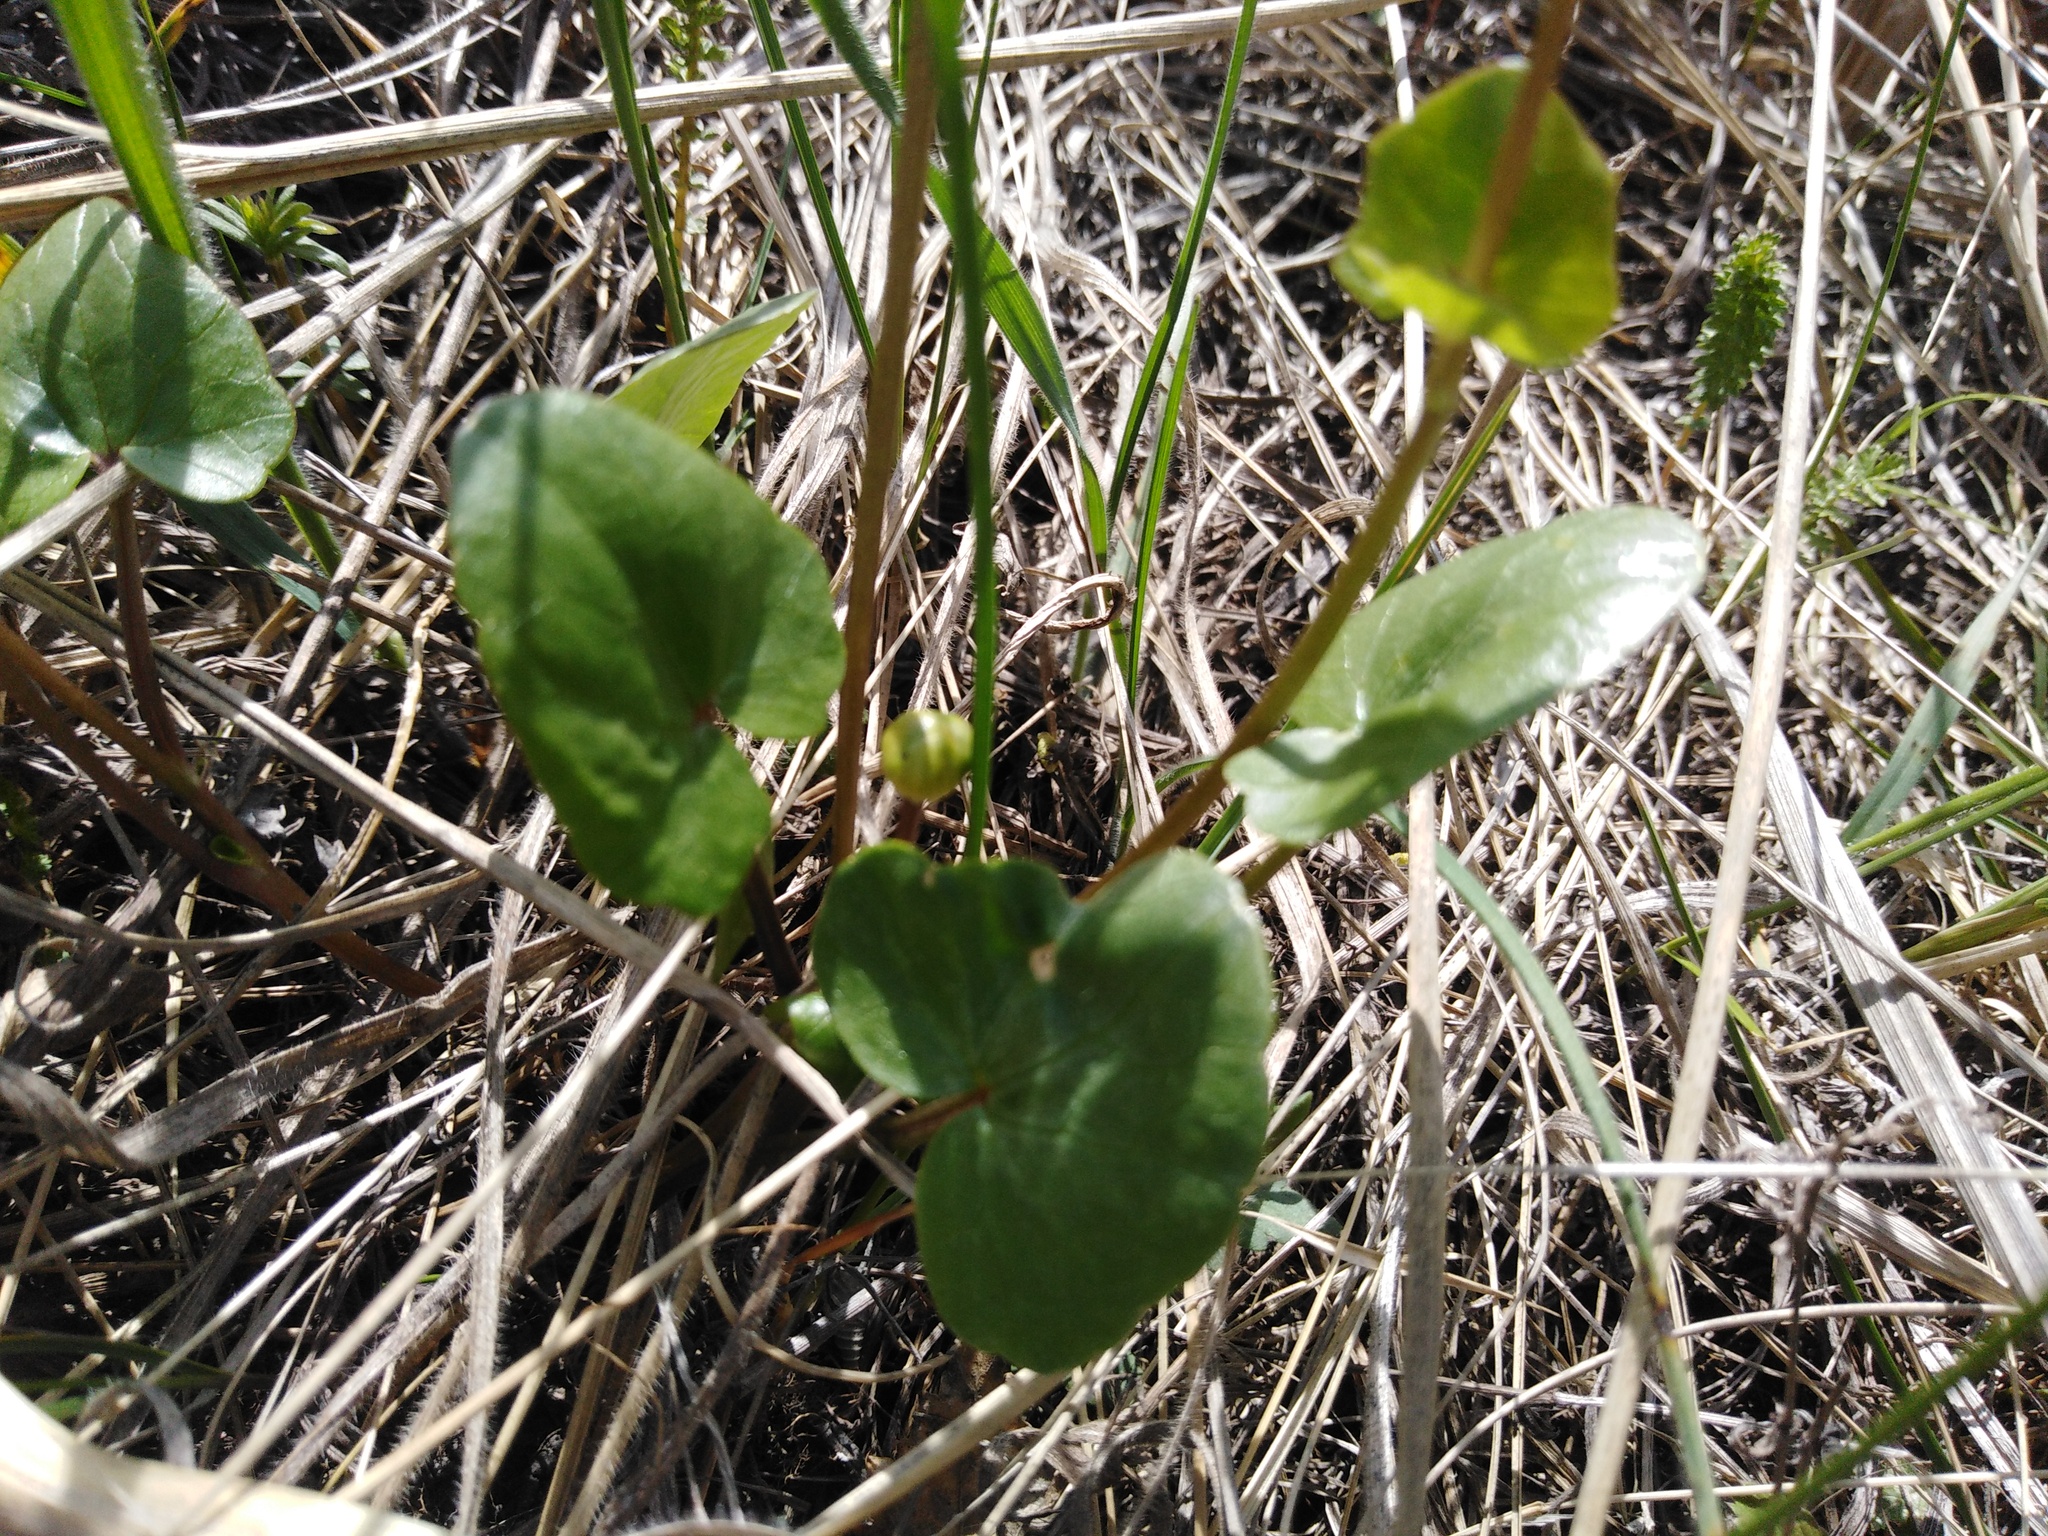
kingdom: Plantae
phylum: Tracheophyta
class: Magnoliopsida
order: Ranunculales
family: Ranunculaceae
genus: Ficaria
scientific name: Ficaria
